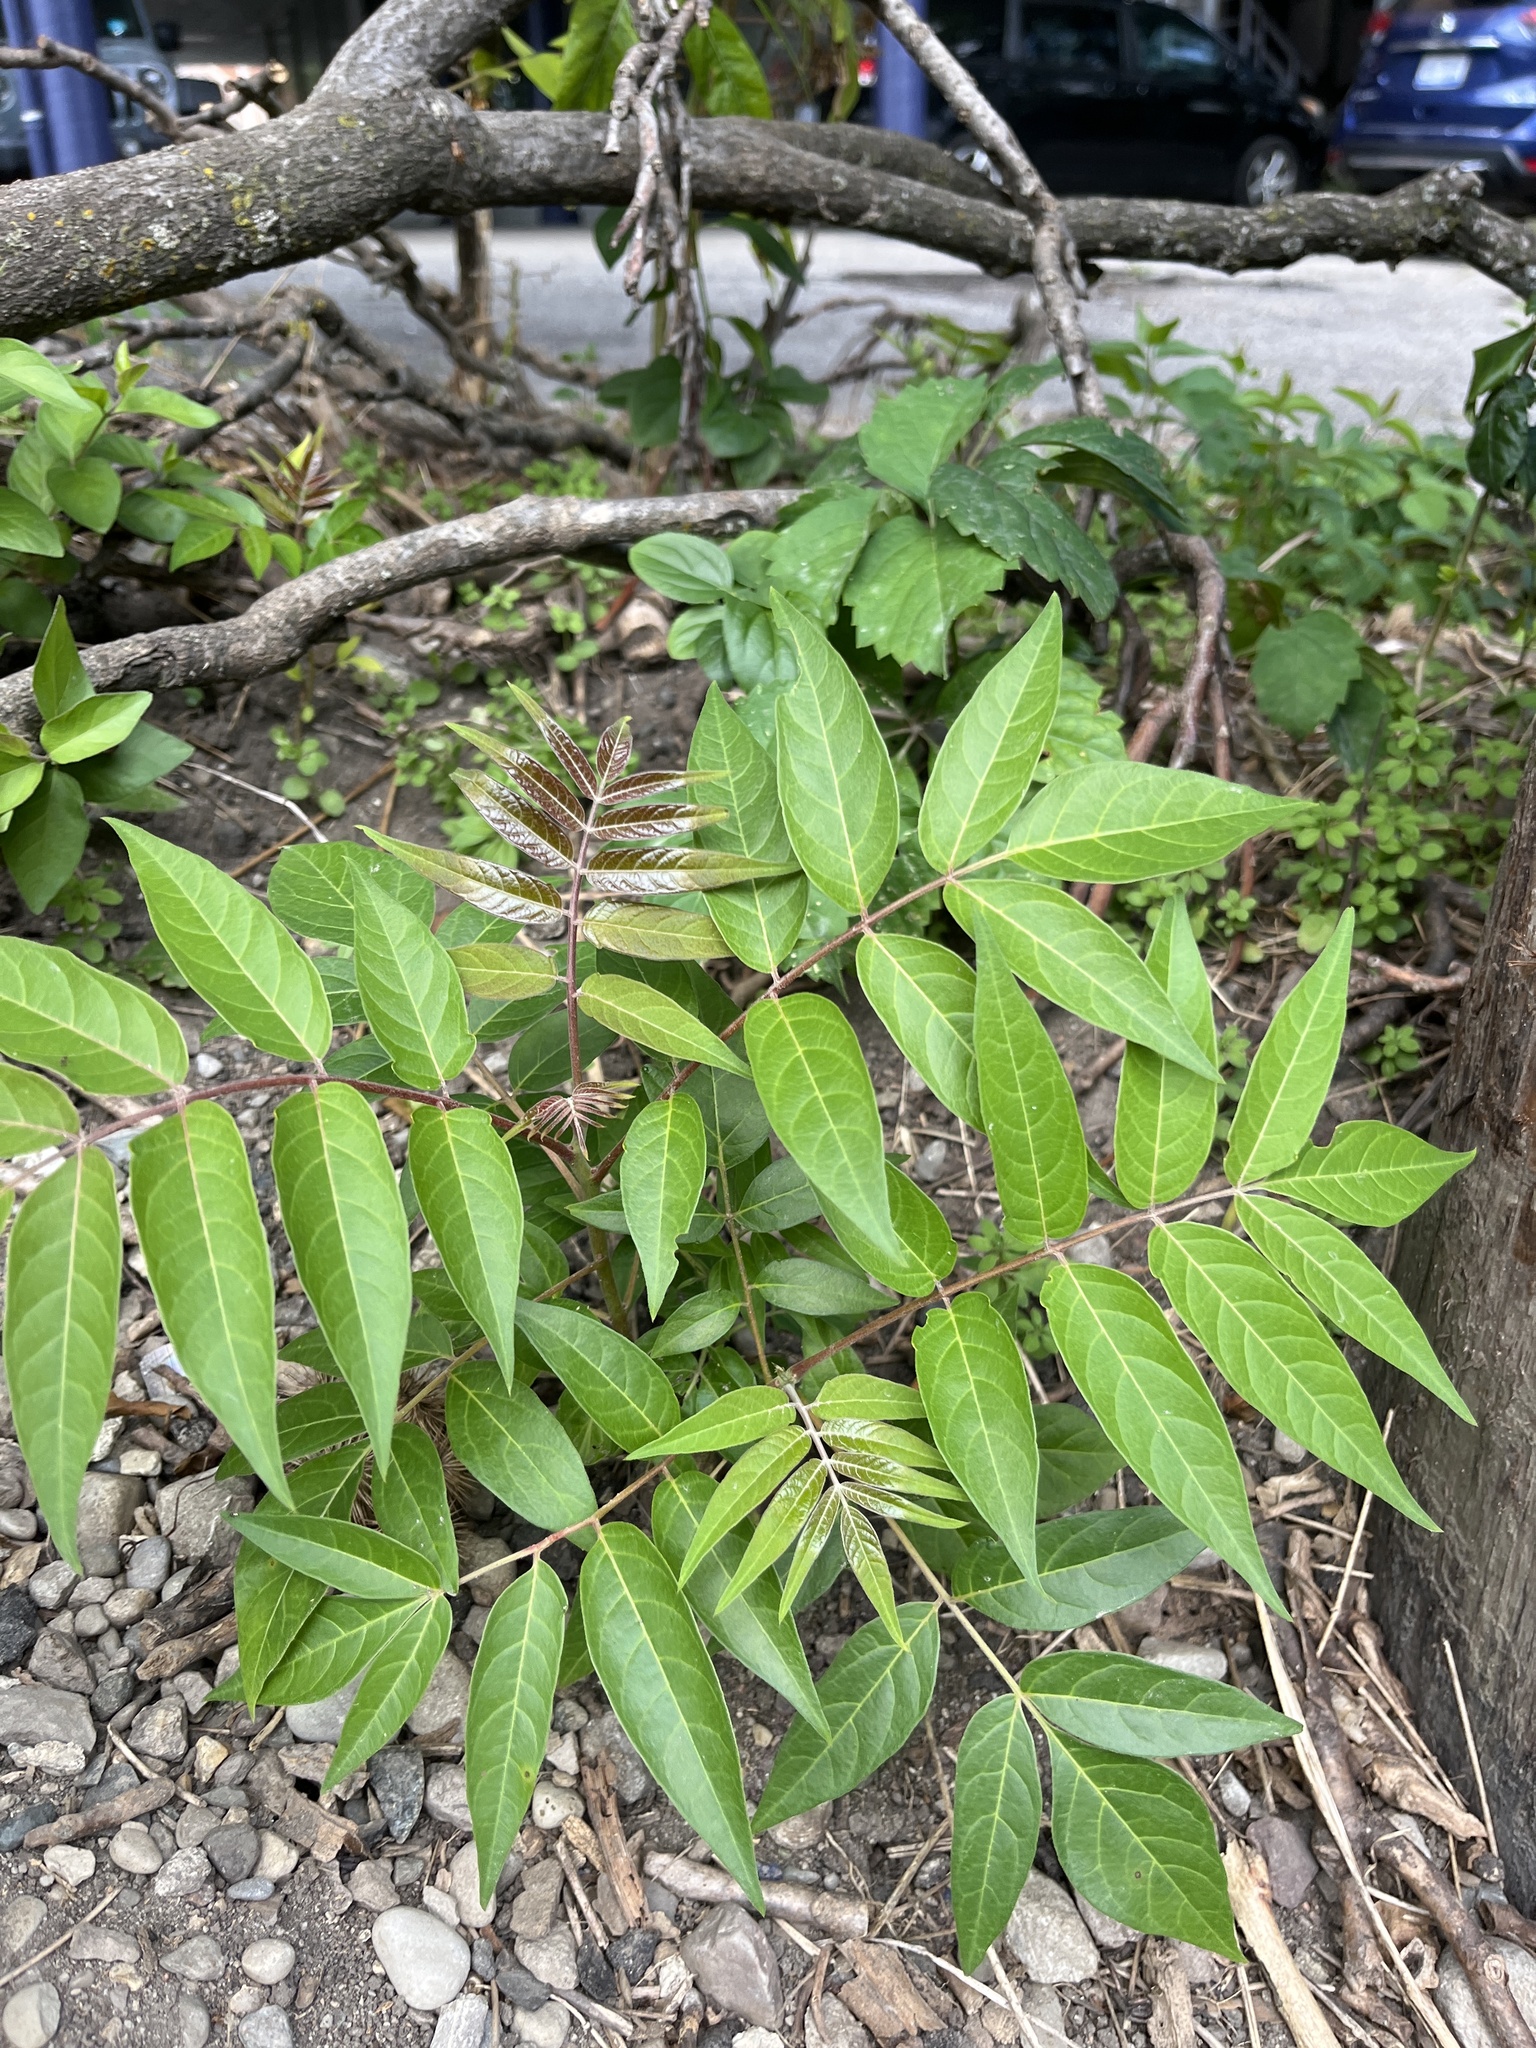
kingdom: Plantae
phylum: Tracheophyta
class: Magnoliopsida
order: Sapindales
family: Simaroubaceae
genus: Ailanthus
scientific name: Ailanthus altissima
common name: Tree-of-heaven
